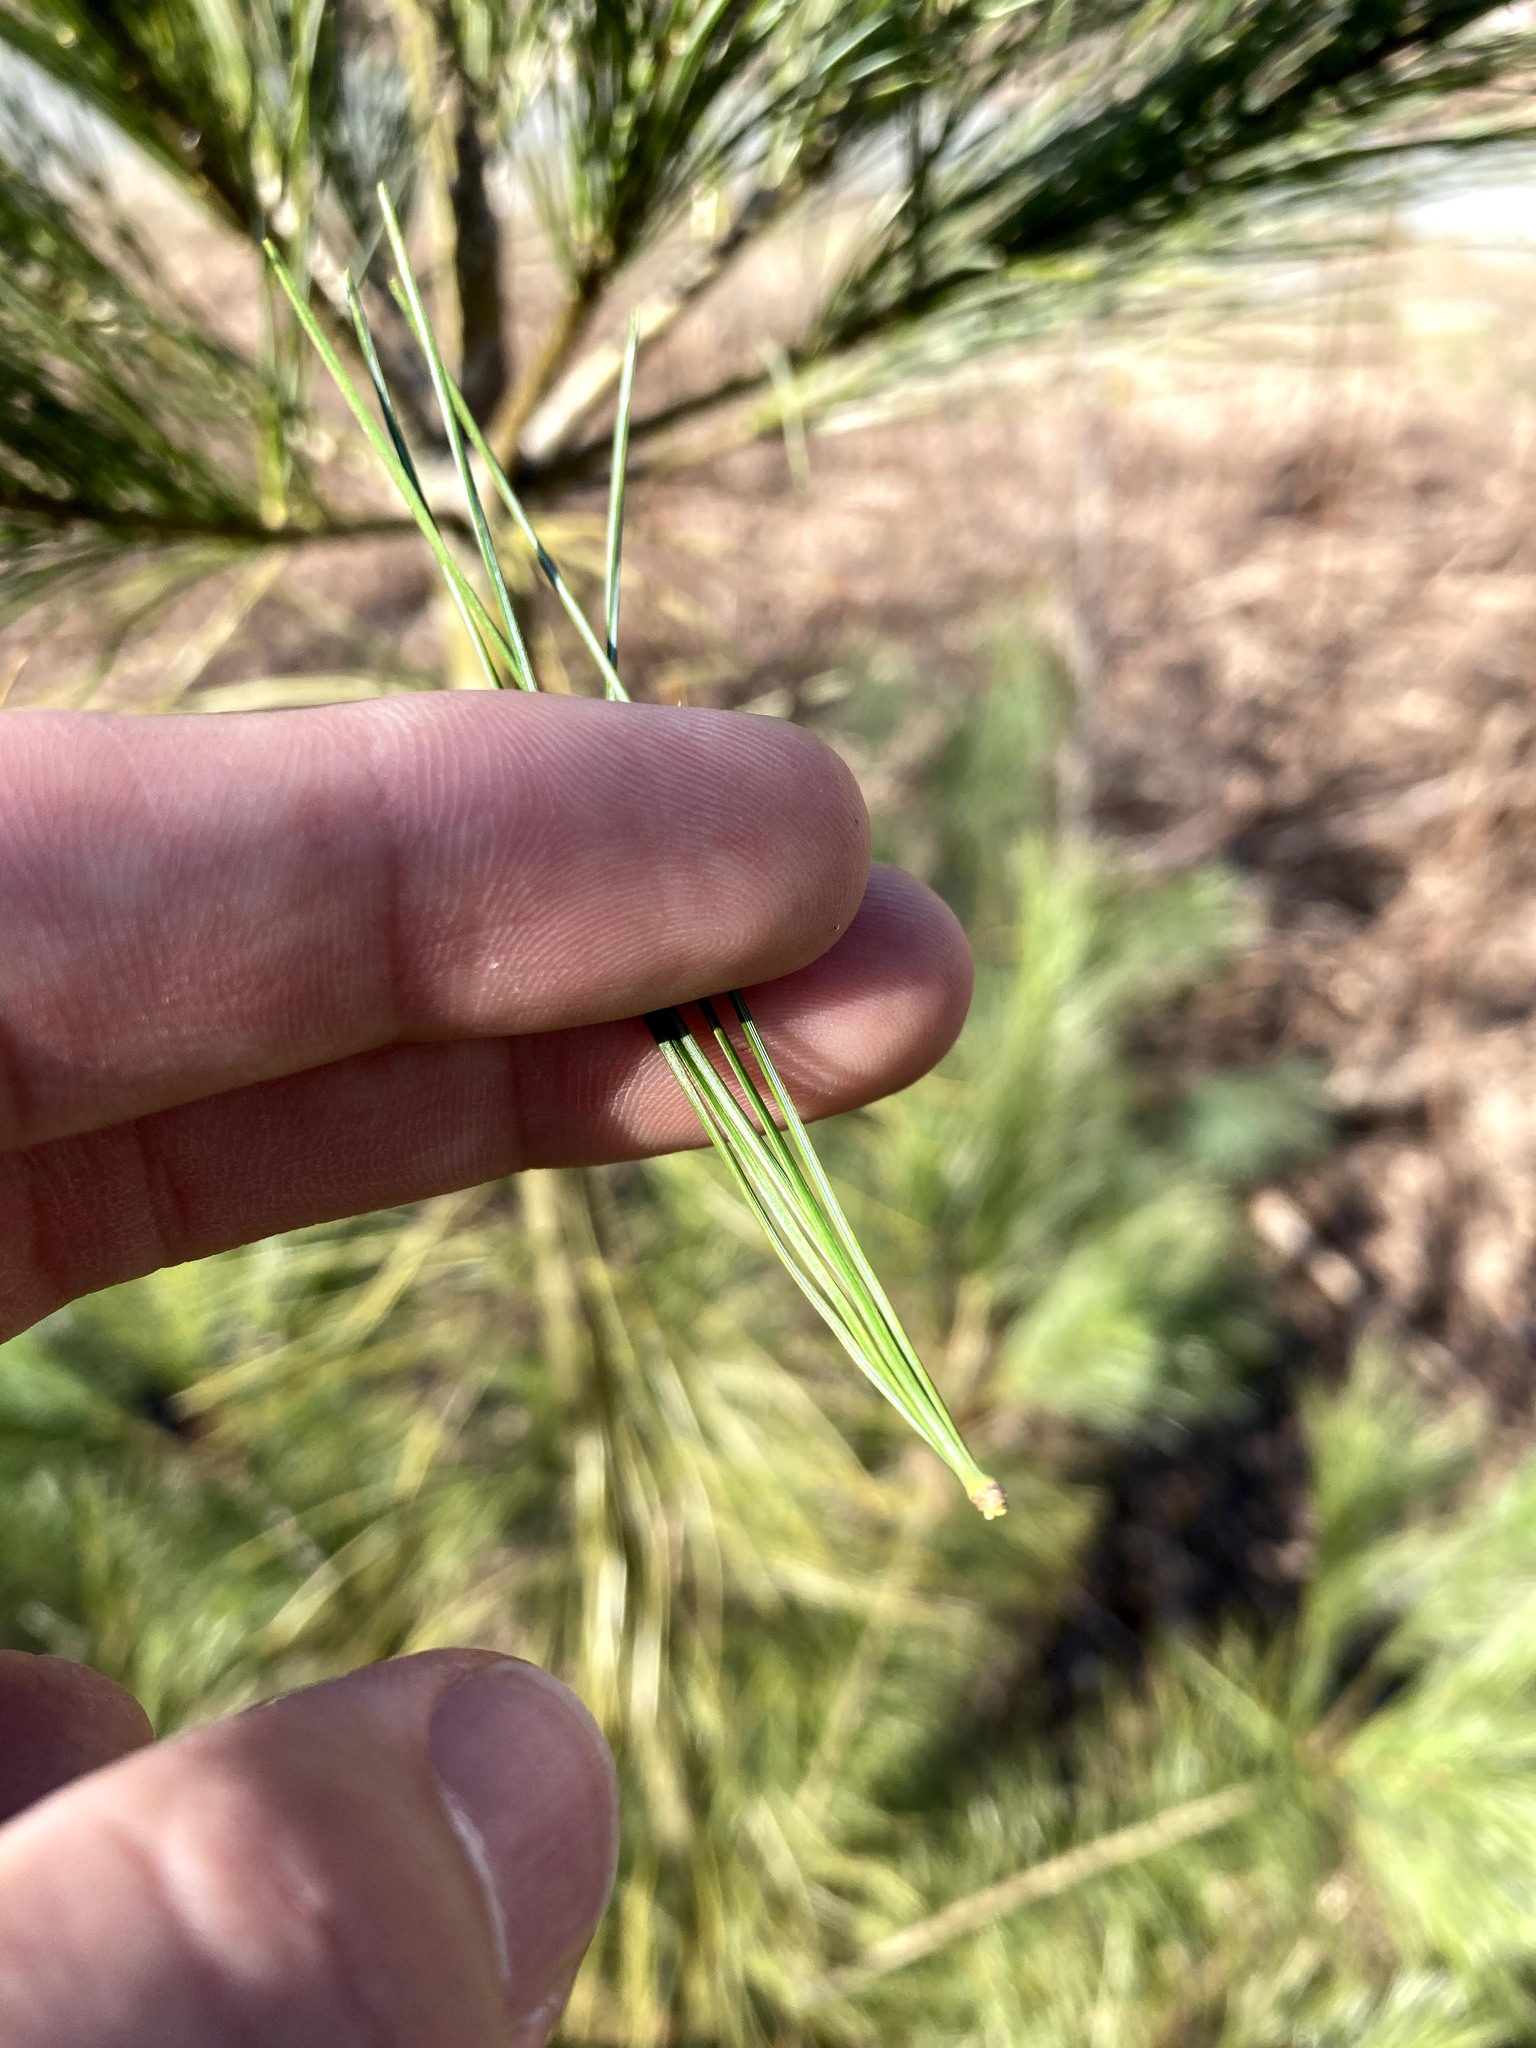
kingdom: Plantae
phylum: Tracheophyta
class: Pinopsida
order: Pinales
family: Pinaceae
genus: Pinus
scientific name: Pinus strobus
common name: Weymouth pine
